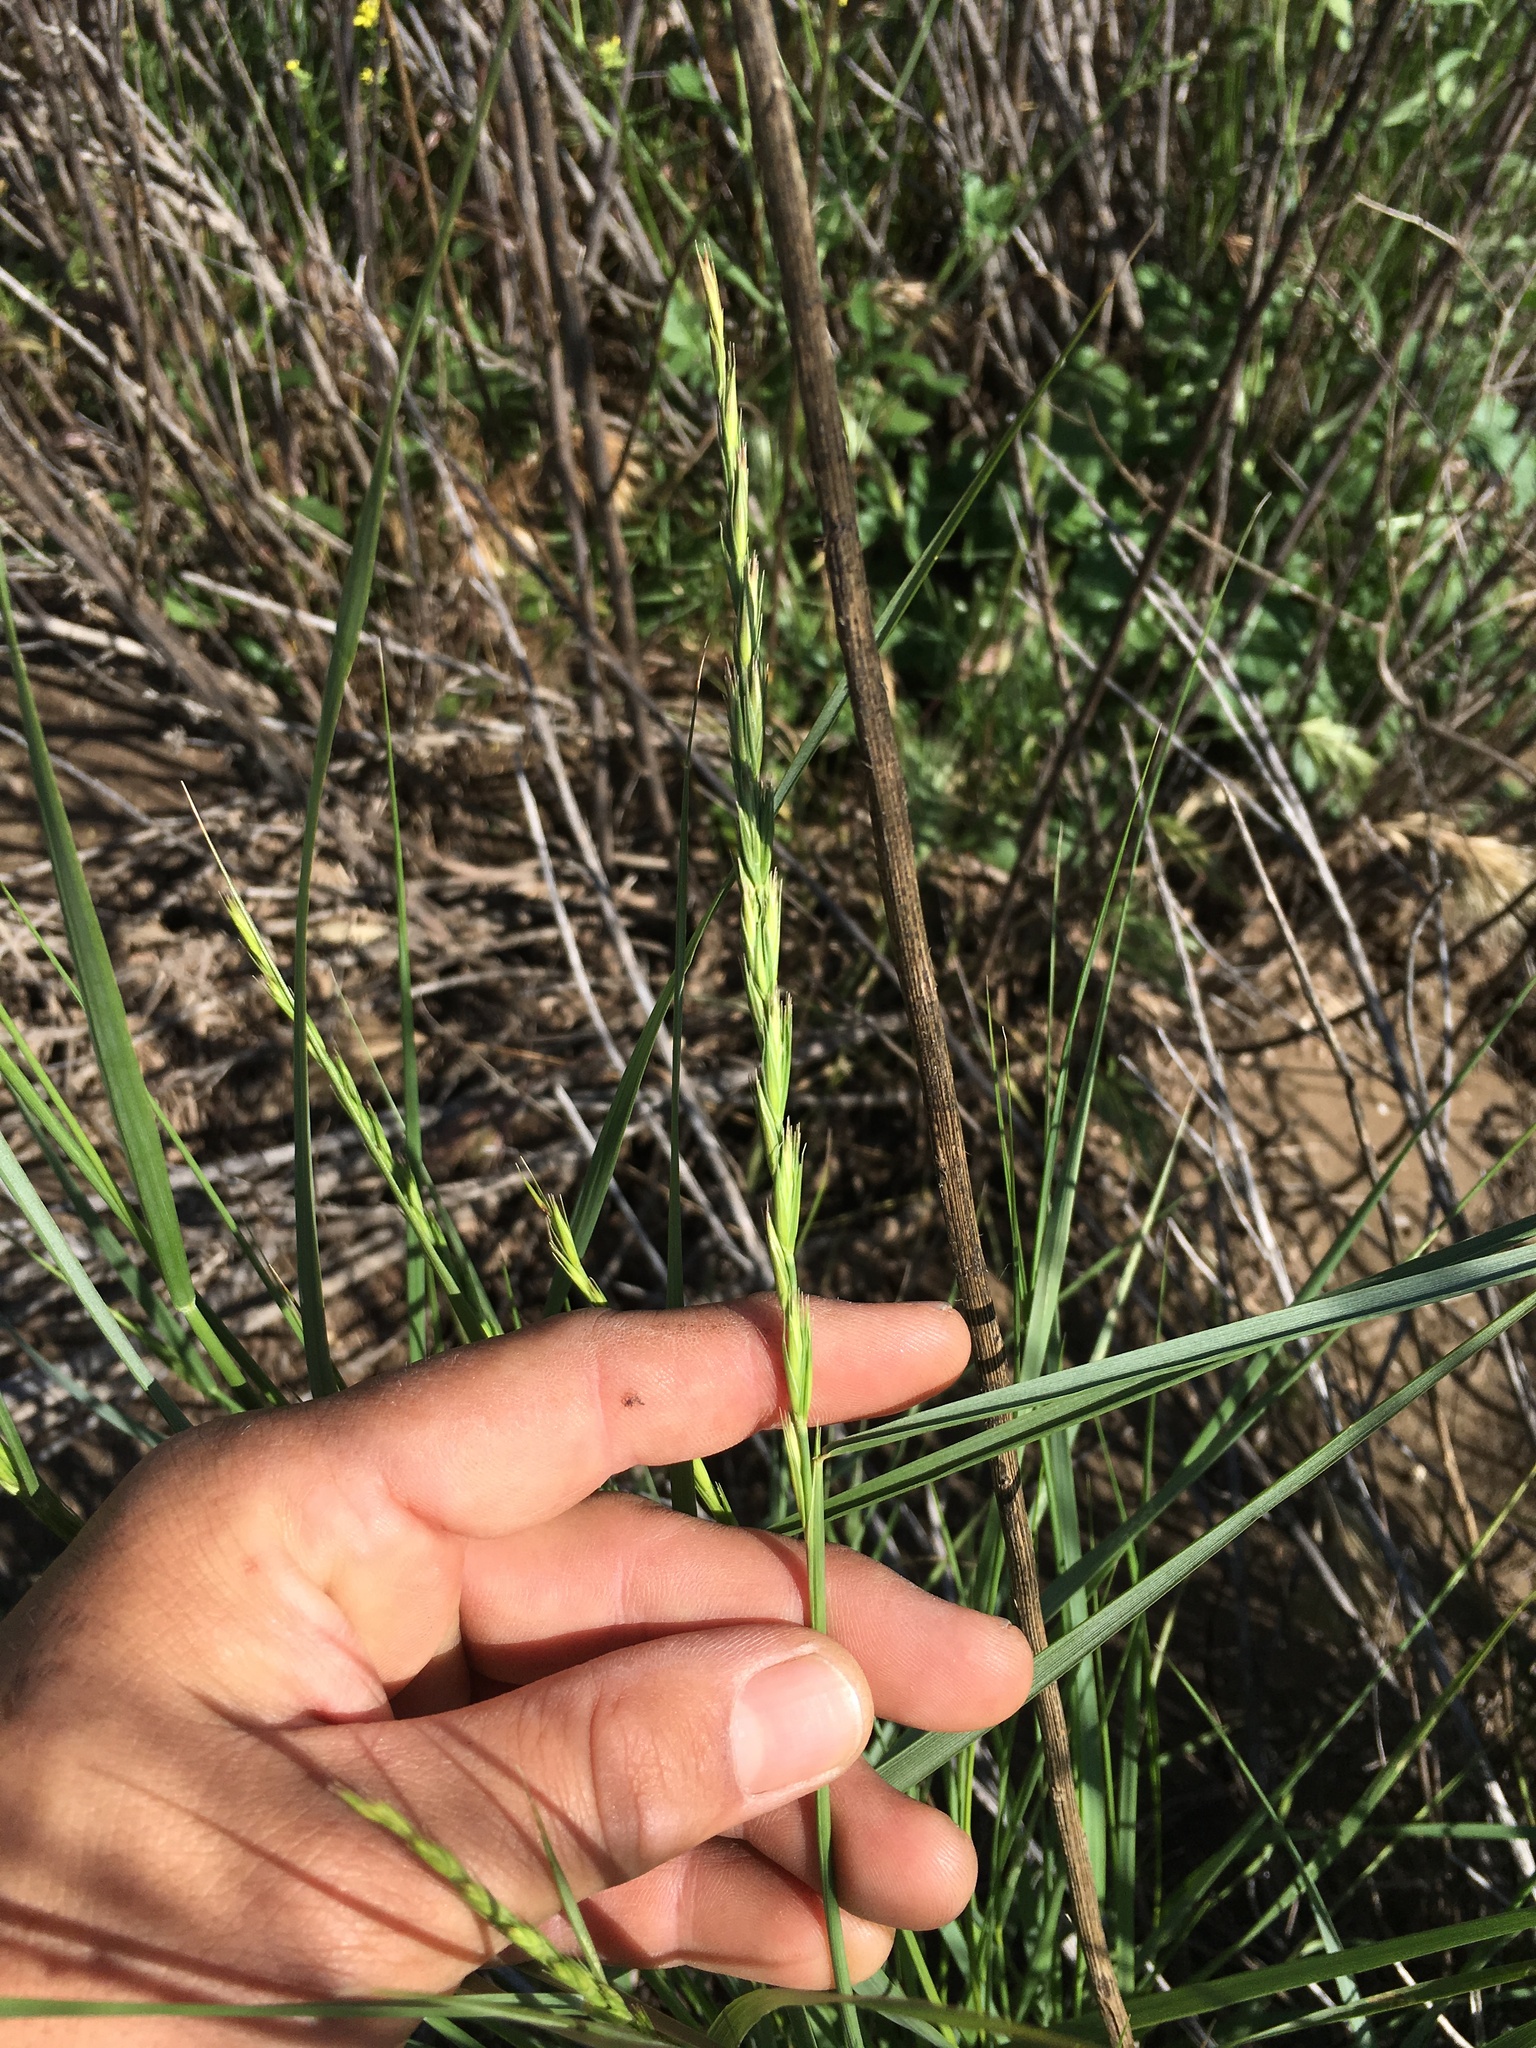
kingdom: Plantae
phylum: Tracheophyta
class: Liliopsida
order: Poales
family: Poaceae
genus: Leymus
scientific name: Leymus triticoides
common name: Beardless wild rye
